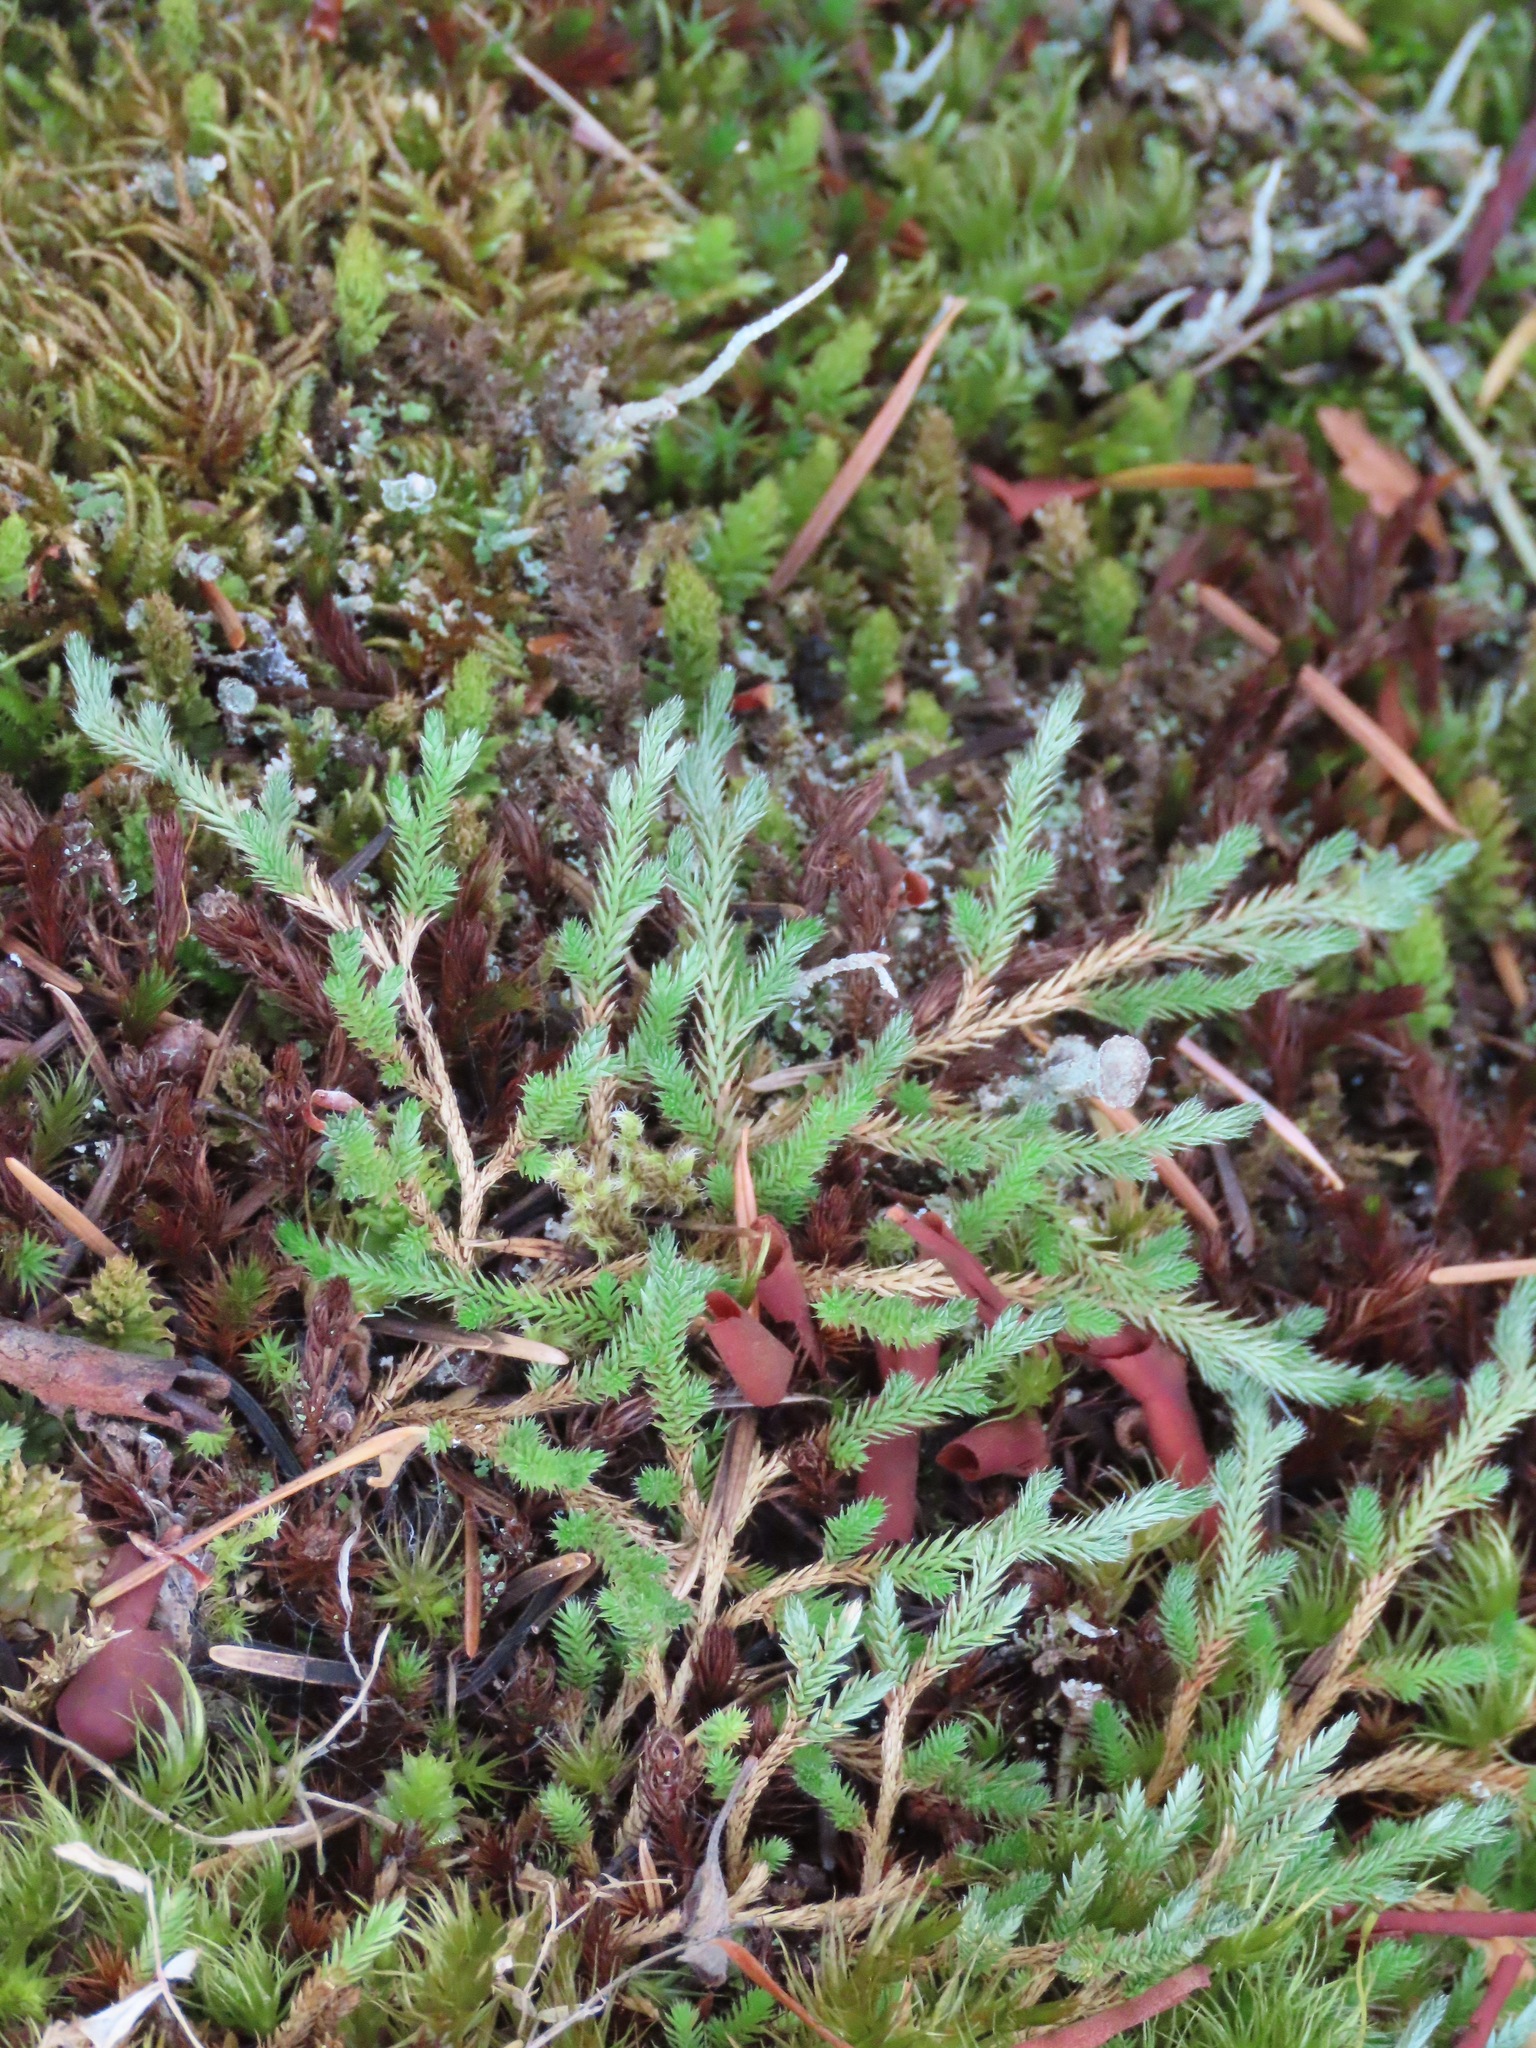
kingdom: Plantae
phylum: Tracheophyta
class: Lycopodiopsida
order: Selaginellales
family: Selaginellaceae
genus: Selaginella
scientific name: Selaginella wallacei
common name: Wallace's selaginella
